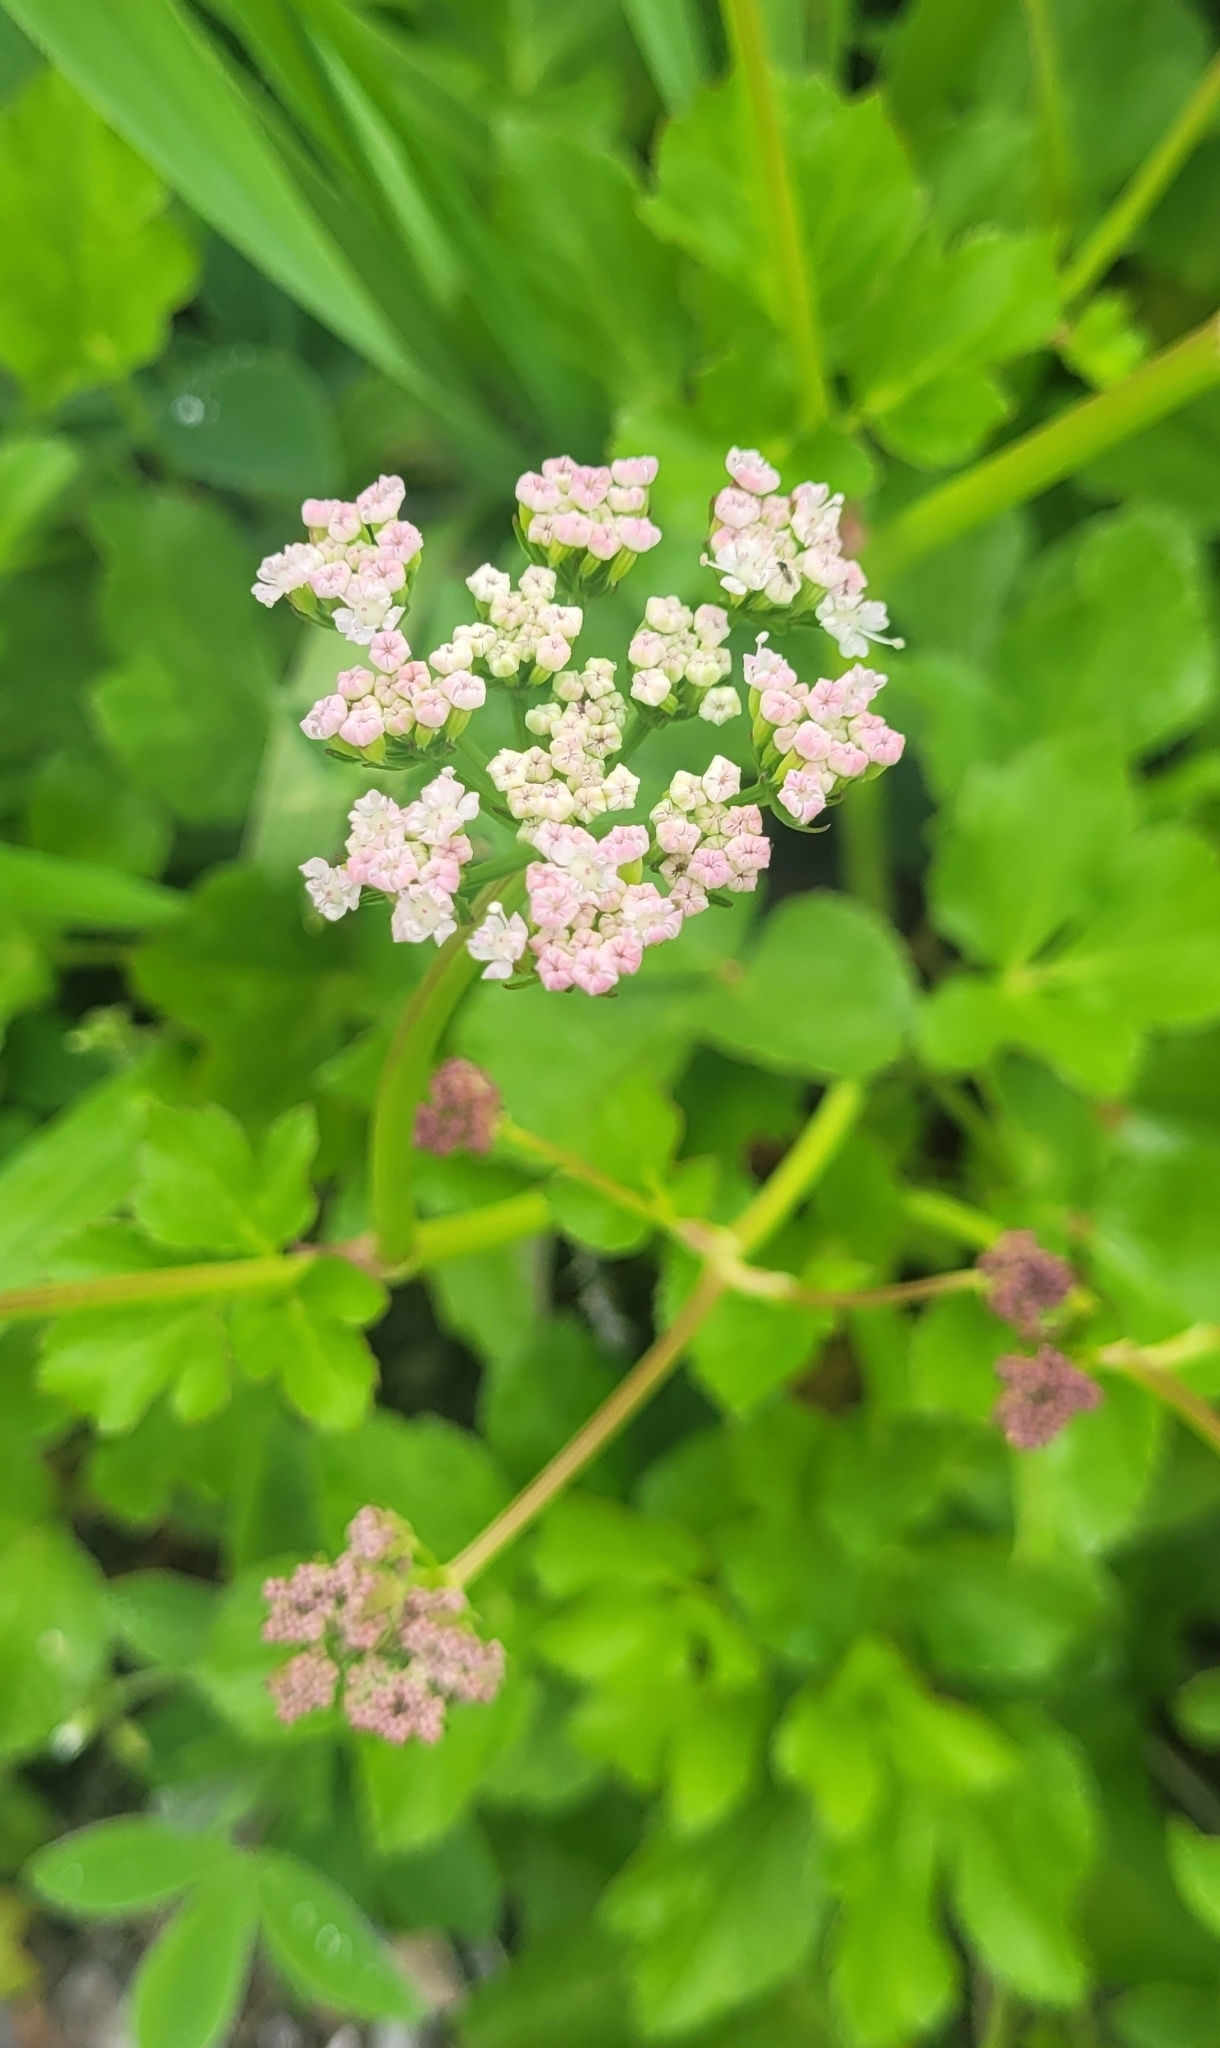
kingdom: Plantae
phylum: Tracheophyta
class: Magnoliopsida
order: Apiales
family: Apiaceae
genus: Ligusticum
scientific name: Ligusticum scothicum
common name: Beach lovage
